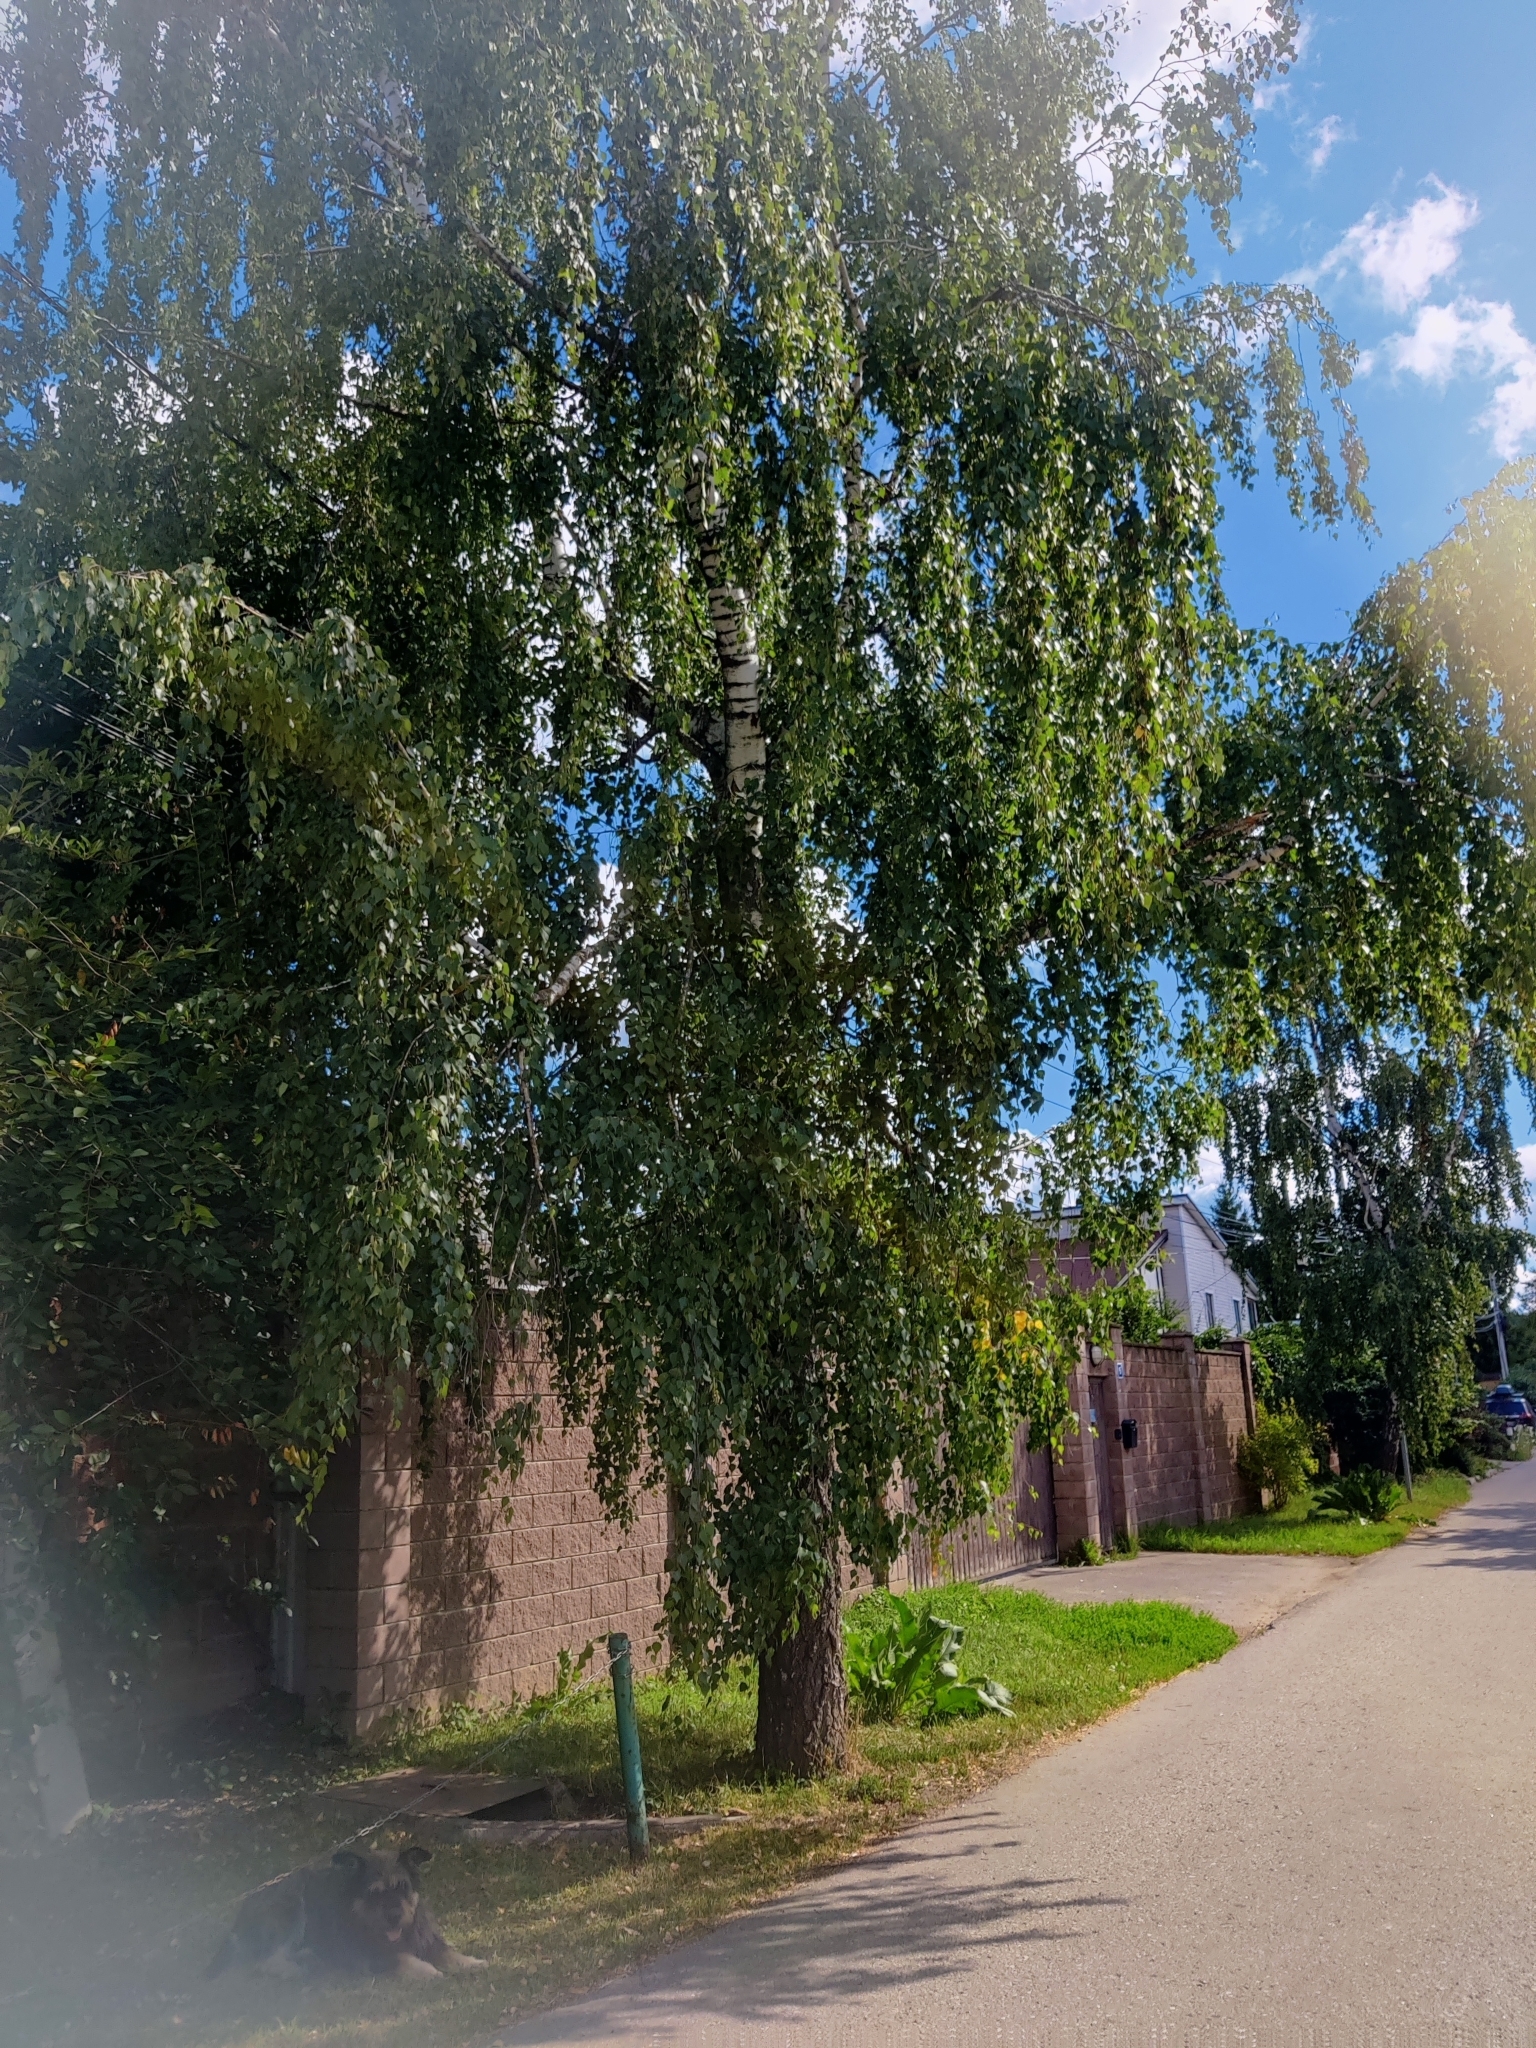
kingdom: Plantae
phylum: Tracheophyta
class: Magnoliopsida
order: Fagales
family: Betulaceae
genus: Betula
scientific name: Betula pendula
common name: Silver birch
